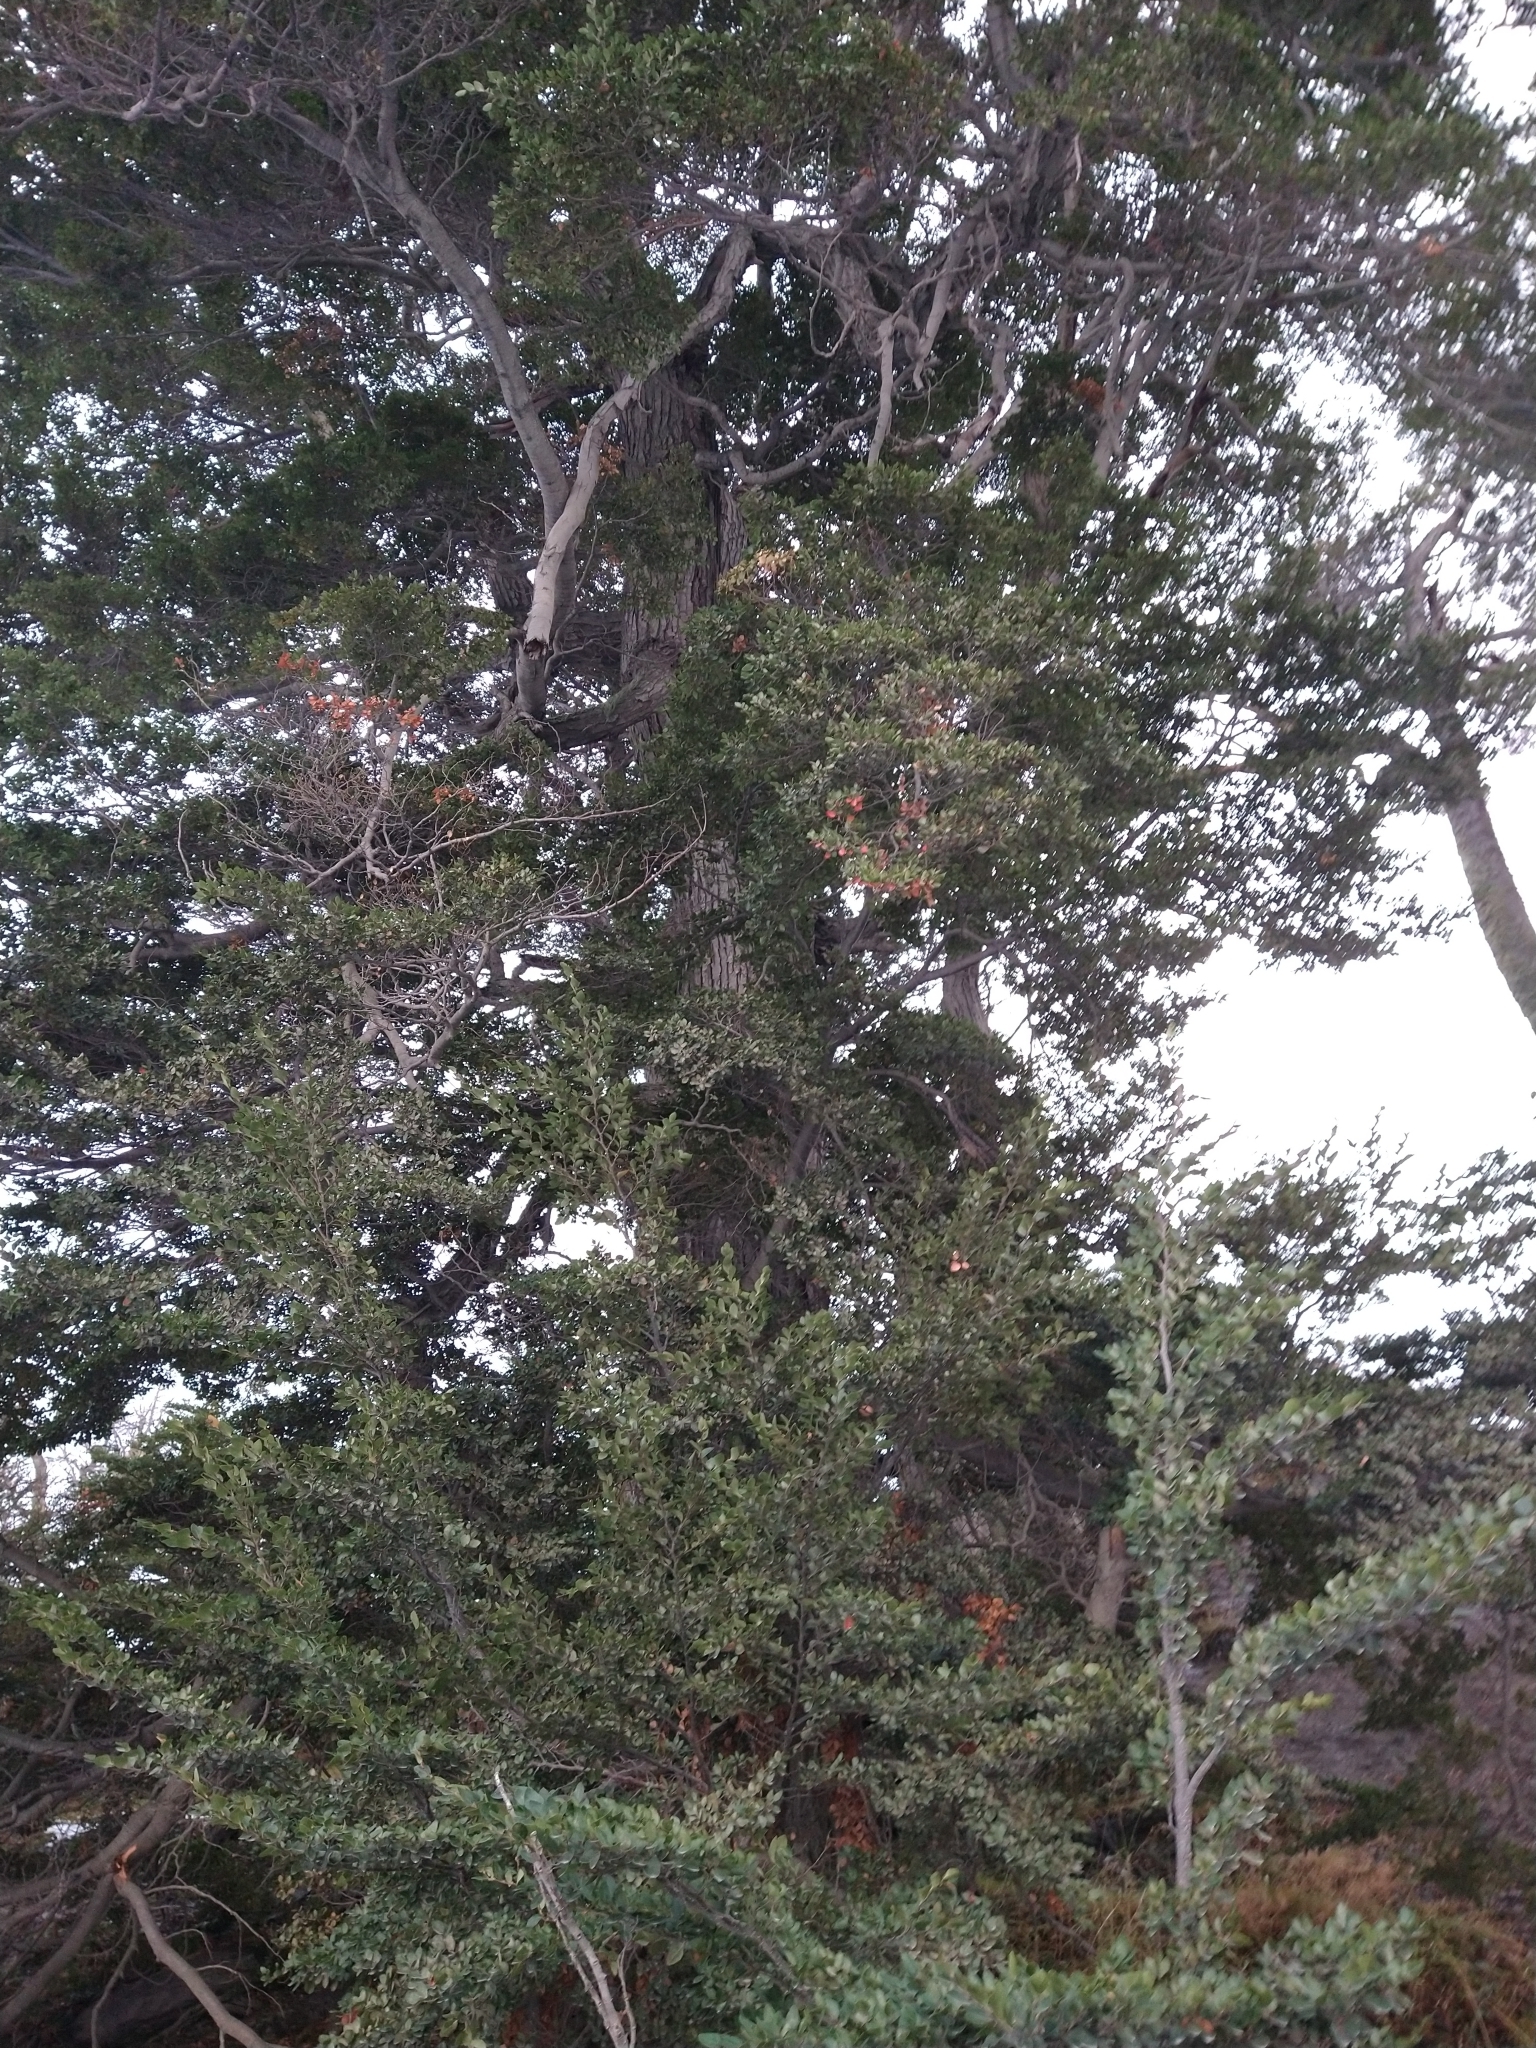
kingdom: Plantae
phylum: Tracheophyta
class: Magnoliopsida
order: Fagales
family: Nothofagaceae
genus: Nothofagus
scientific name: Nothofagus betuloides
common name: Magellan's beech
